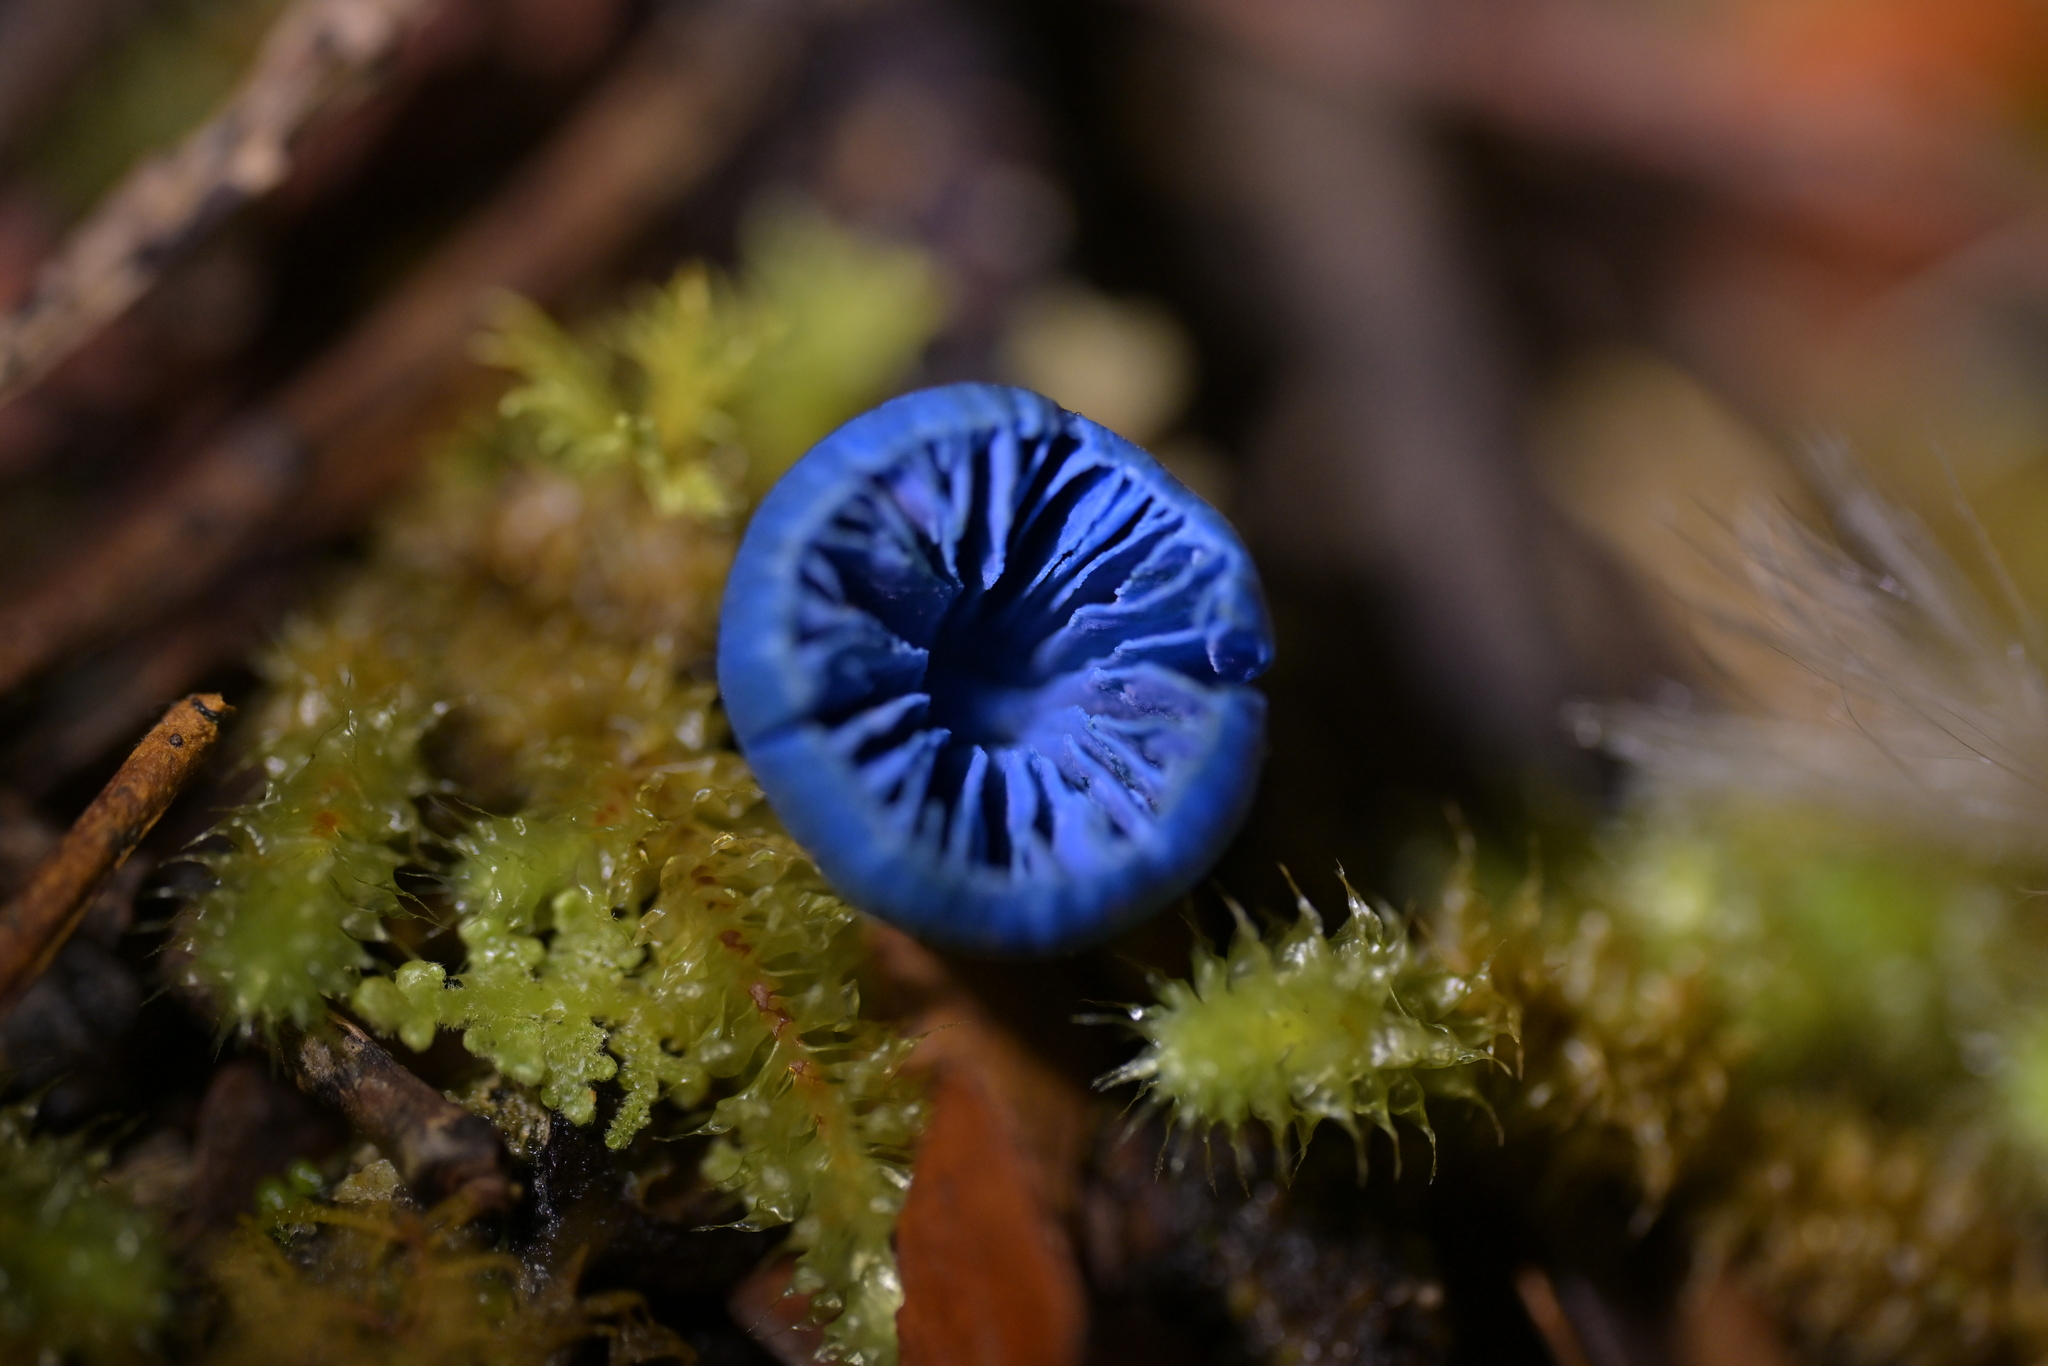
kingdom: Fungi
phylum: Basidiomycota
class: Agaricomycetes
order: Agaricales
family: Entolomataceae
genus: Entoloma
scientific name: Entoloma hochstetteri
